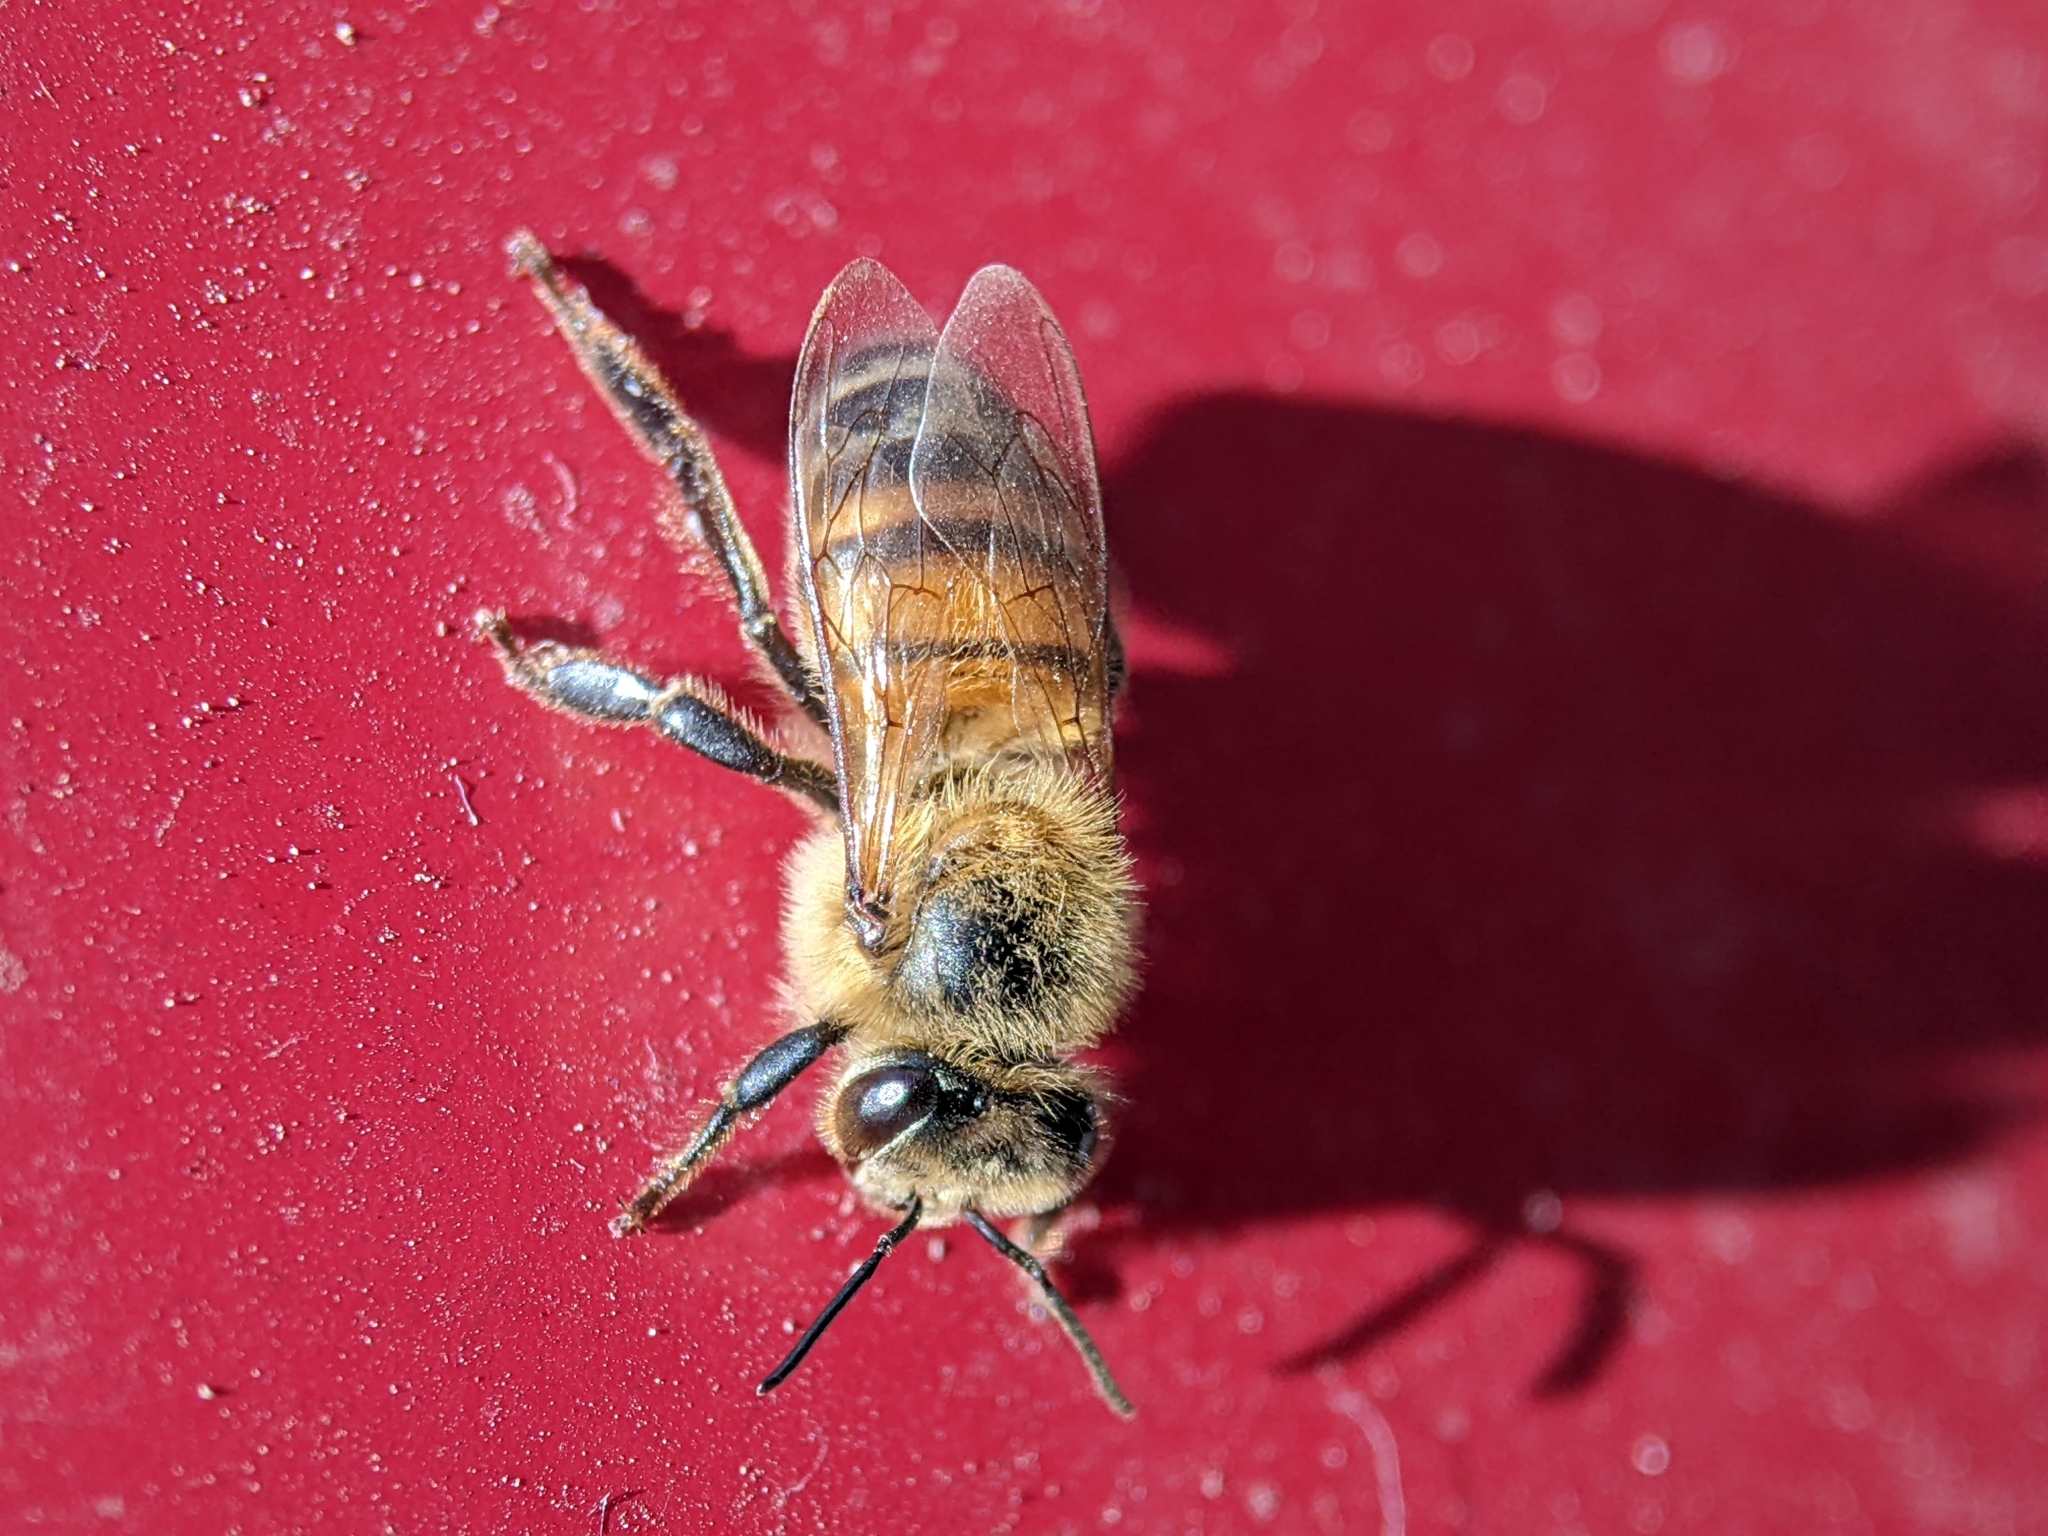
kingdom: Animalia
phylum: Arthropoda
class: Insecta
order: Hymenoptera
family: Apidae
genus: Apis
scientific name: Apis mellifera
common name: Honey bee
